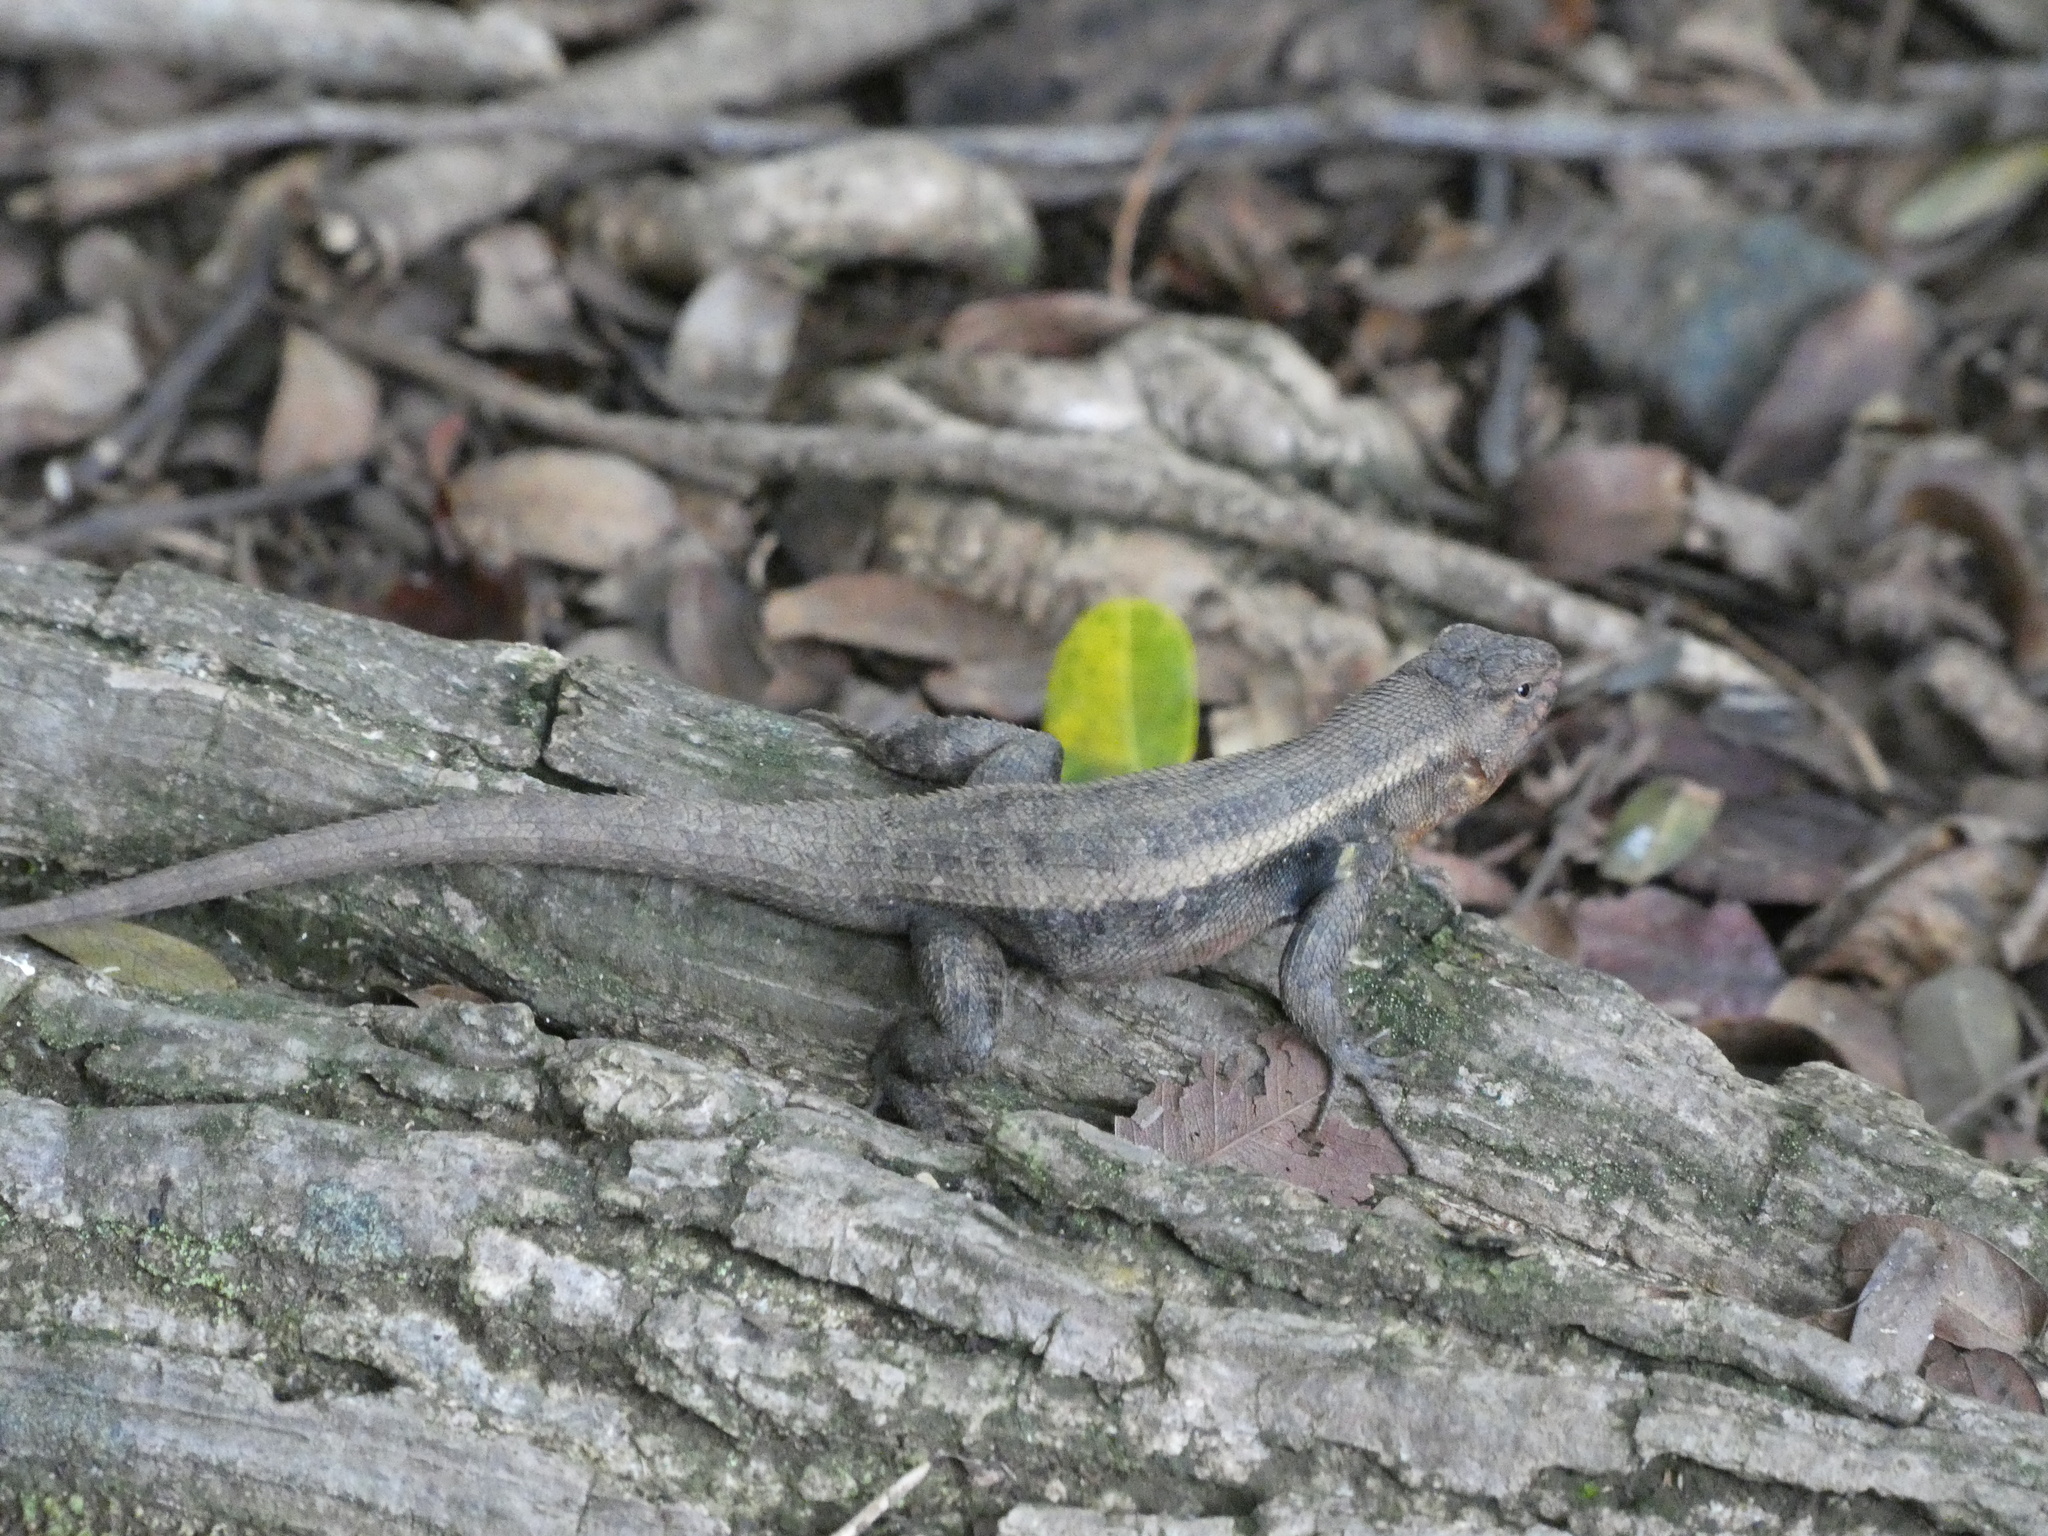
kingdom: Animalia
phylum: Chordata
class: Squamata
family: Phrynosomatidae
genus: Sceloporus
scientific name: Sceloporus variabilis
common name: Rosebelly lizard
